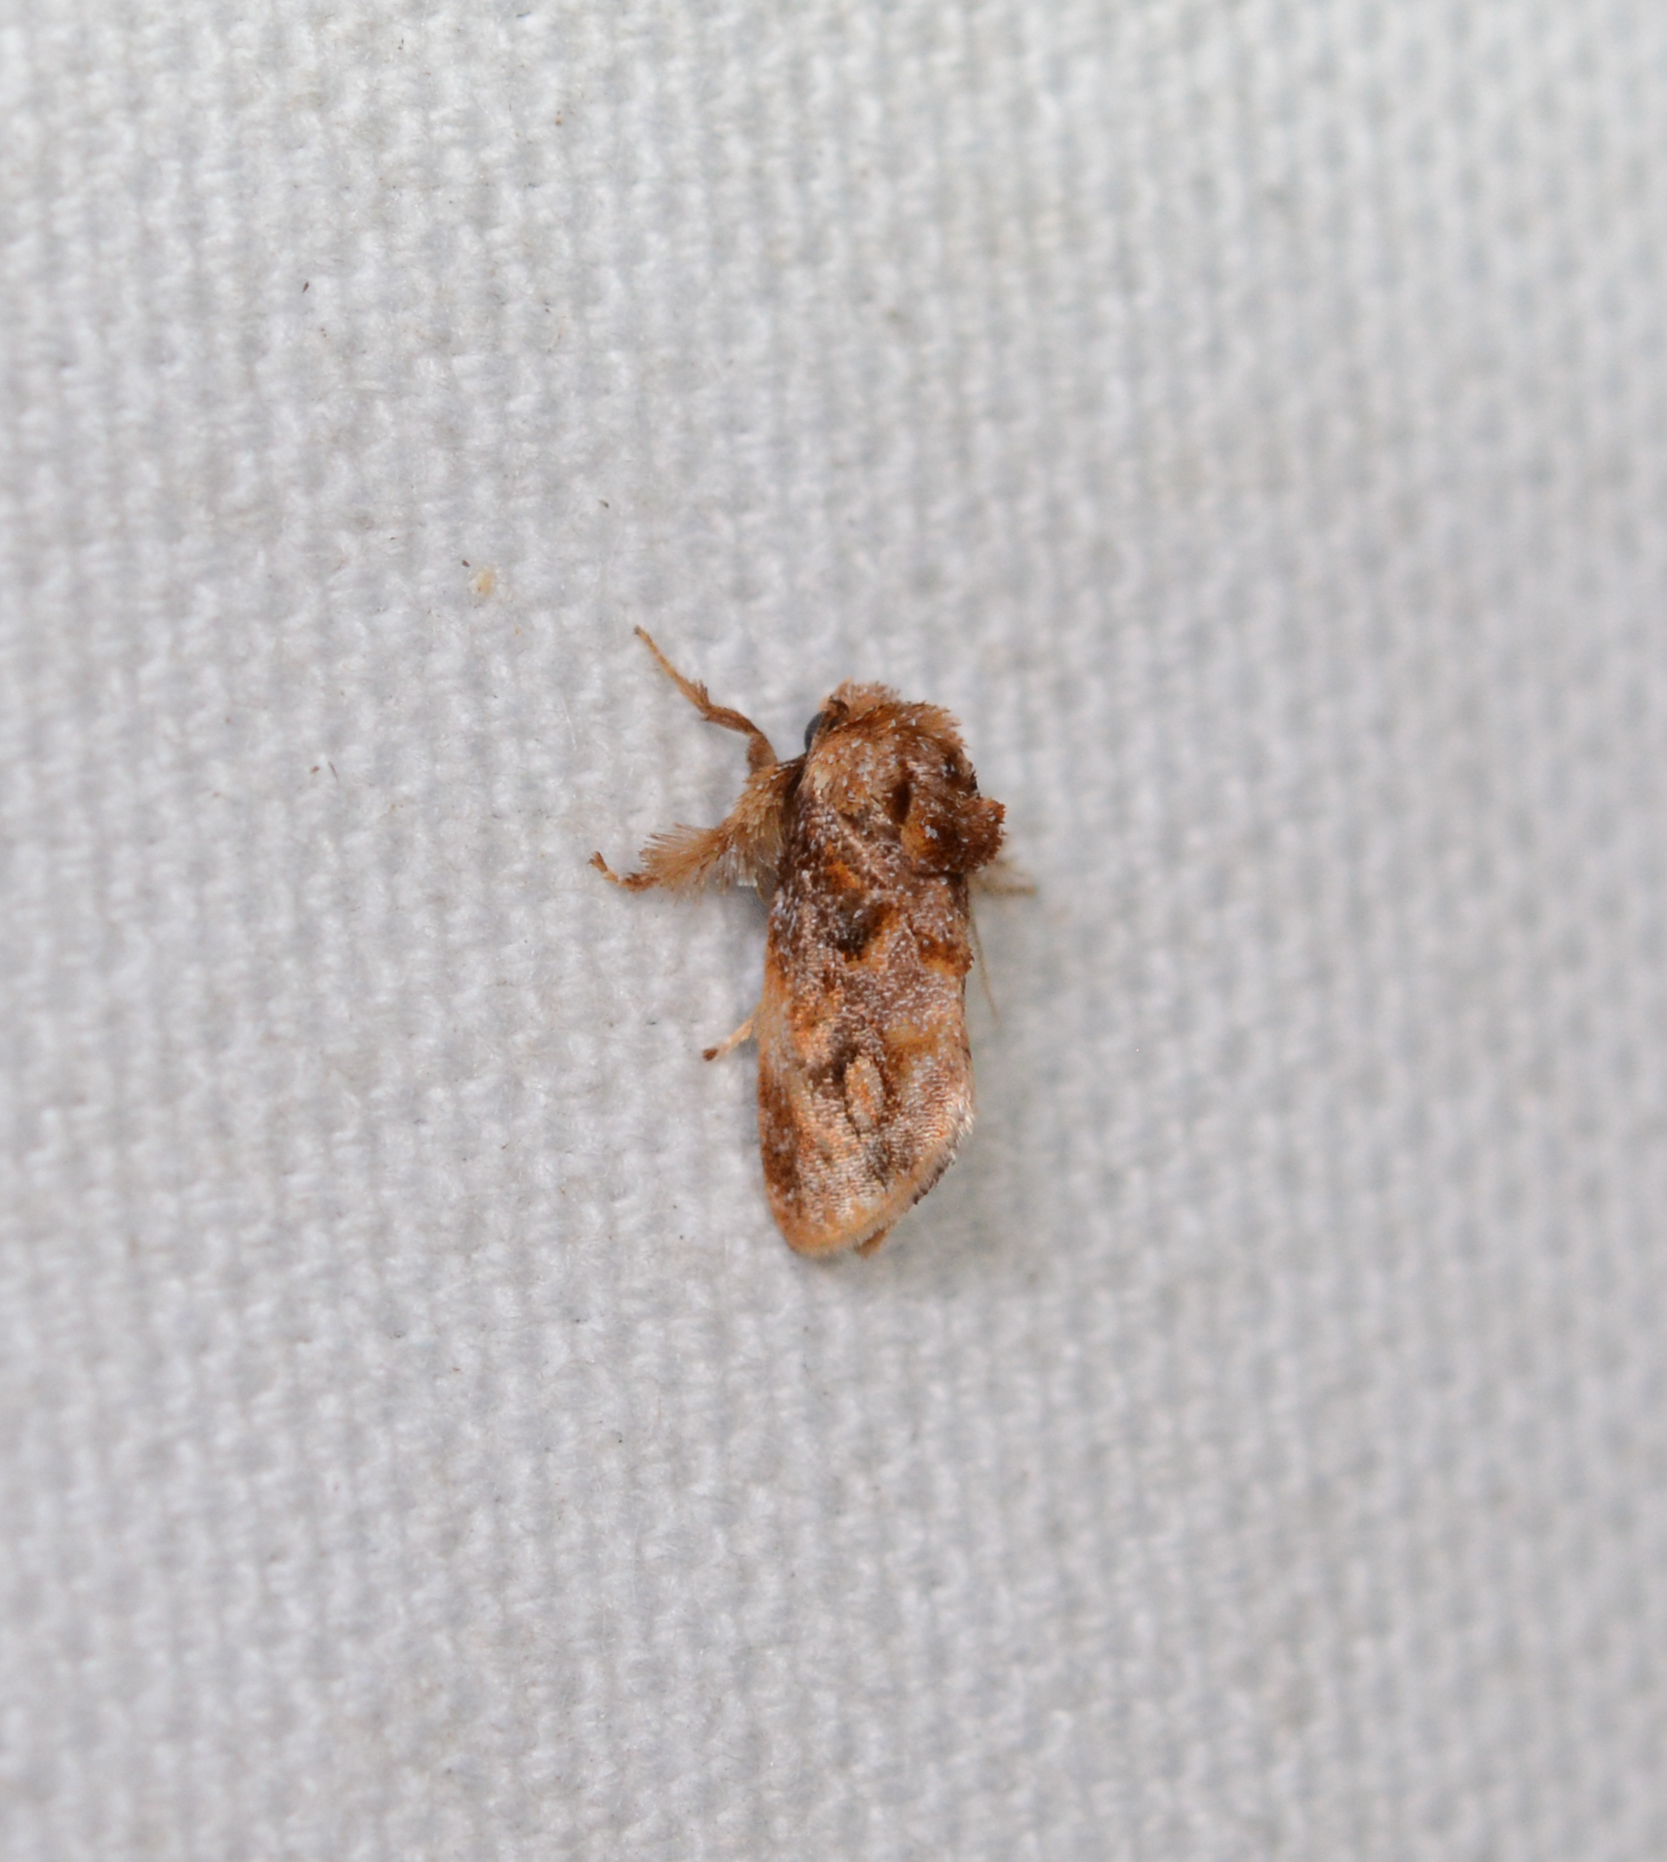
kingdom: Animalia
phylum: Arthropoda
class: Insecta
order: Lepidoptera
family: Limacodidae
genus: Isochaetes
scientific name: Isochaetes beutenmuelleri
